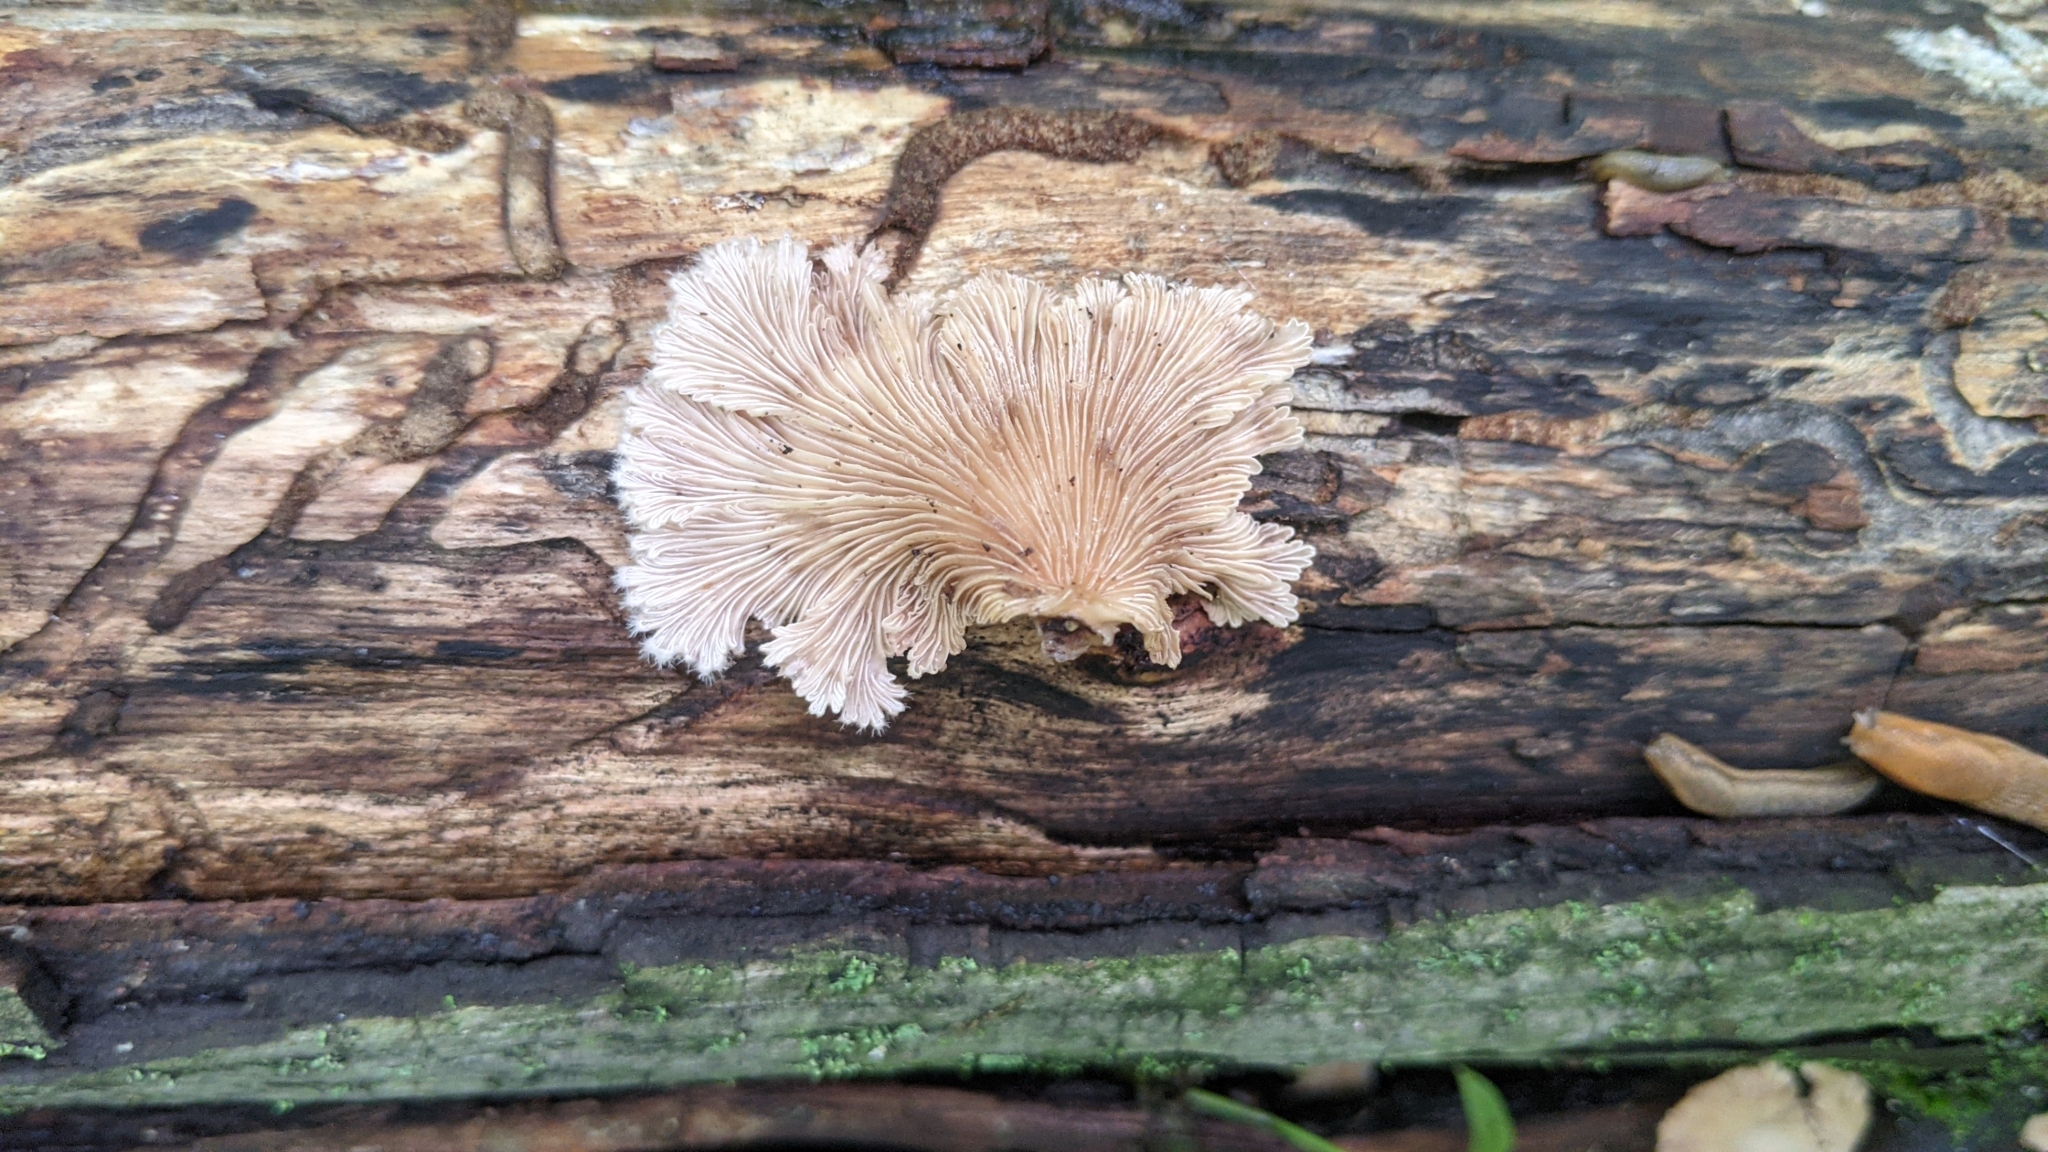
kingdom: Fungi
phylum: Basidiomycota
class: Agaricomycetes
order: Agaricales
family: Schizophyllaceae
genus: Schizophyllum
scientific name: Schizophyllum commune
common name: Common porecrust
